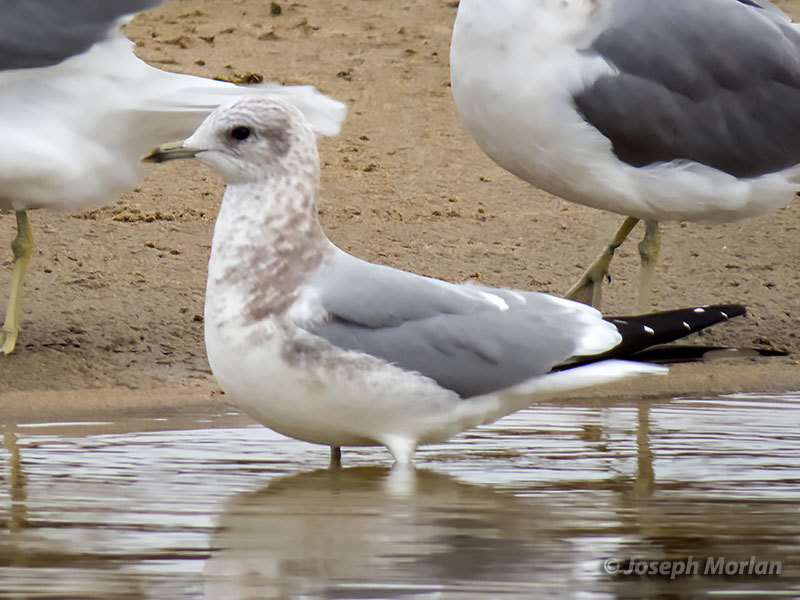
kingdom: Animalia
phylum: Chordata
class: Aves
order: Charadriiformes
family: Laridae
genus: Larus
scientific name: Larus brachyrhynchus
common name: Short-billed gull
